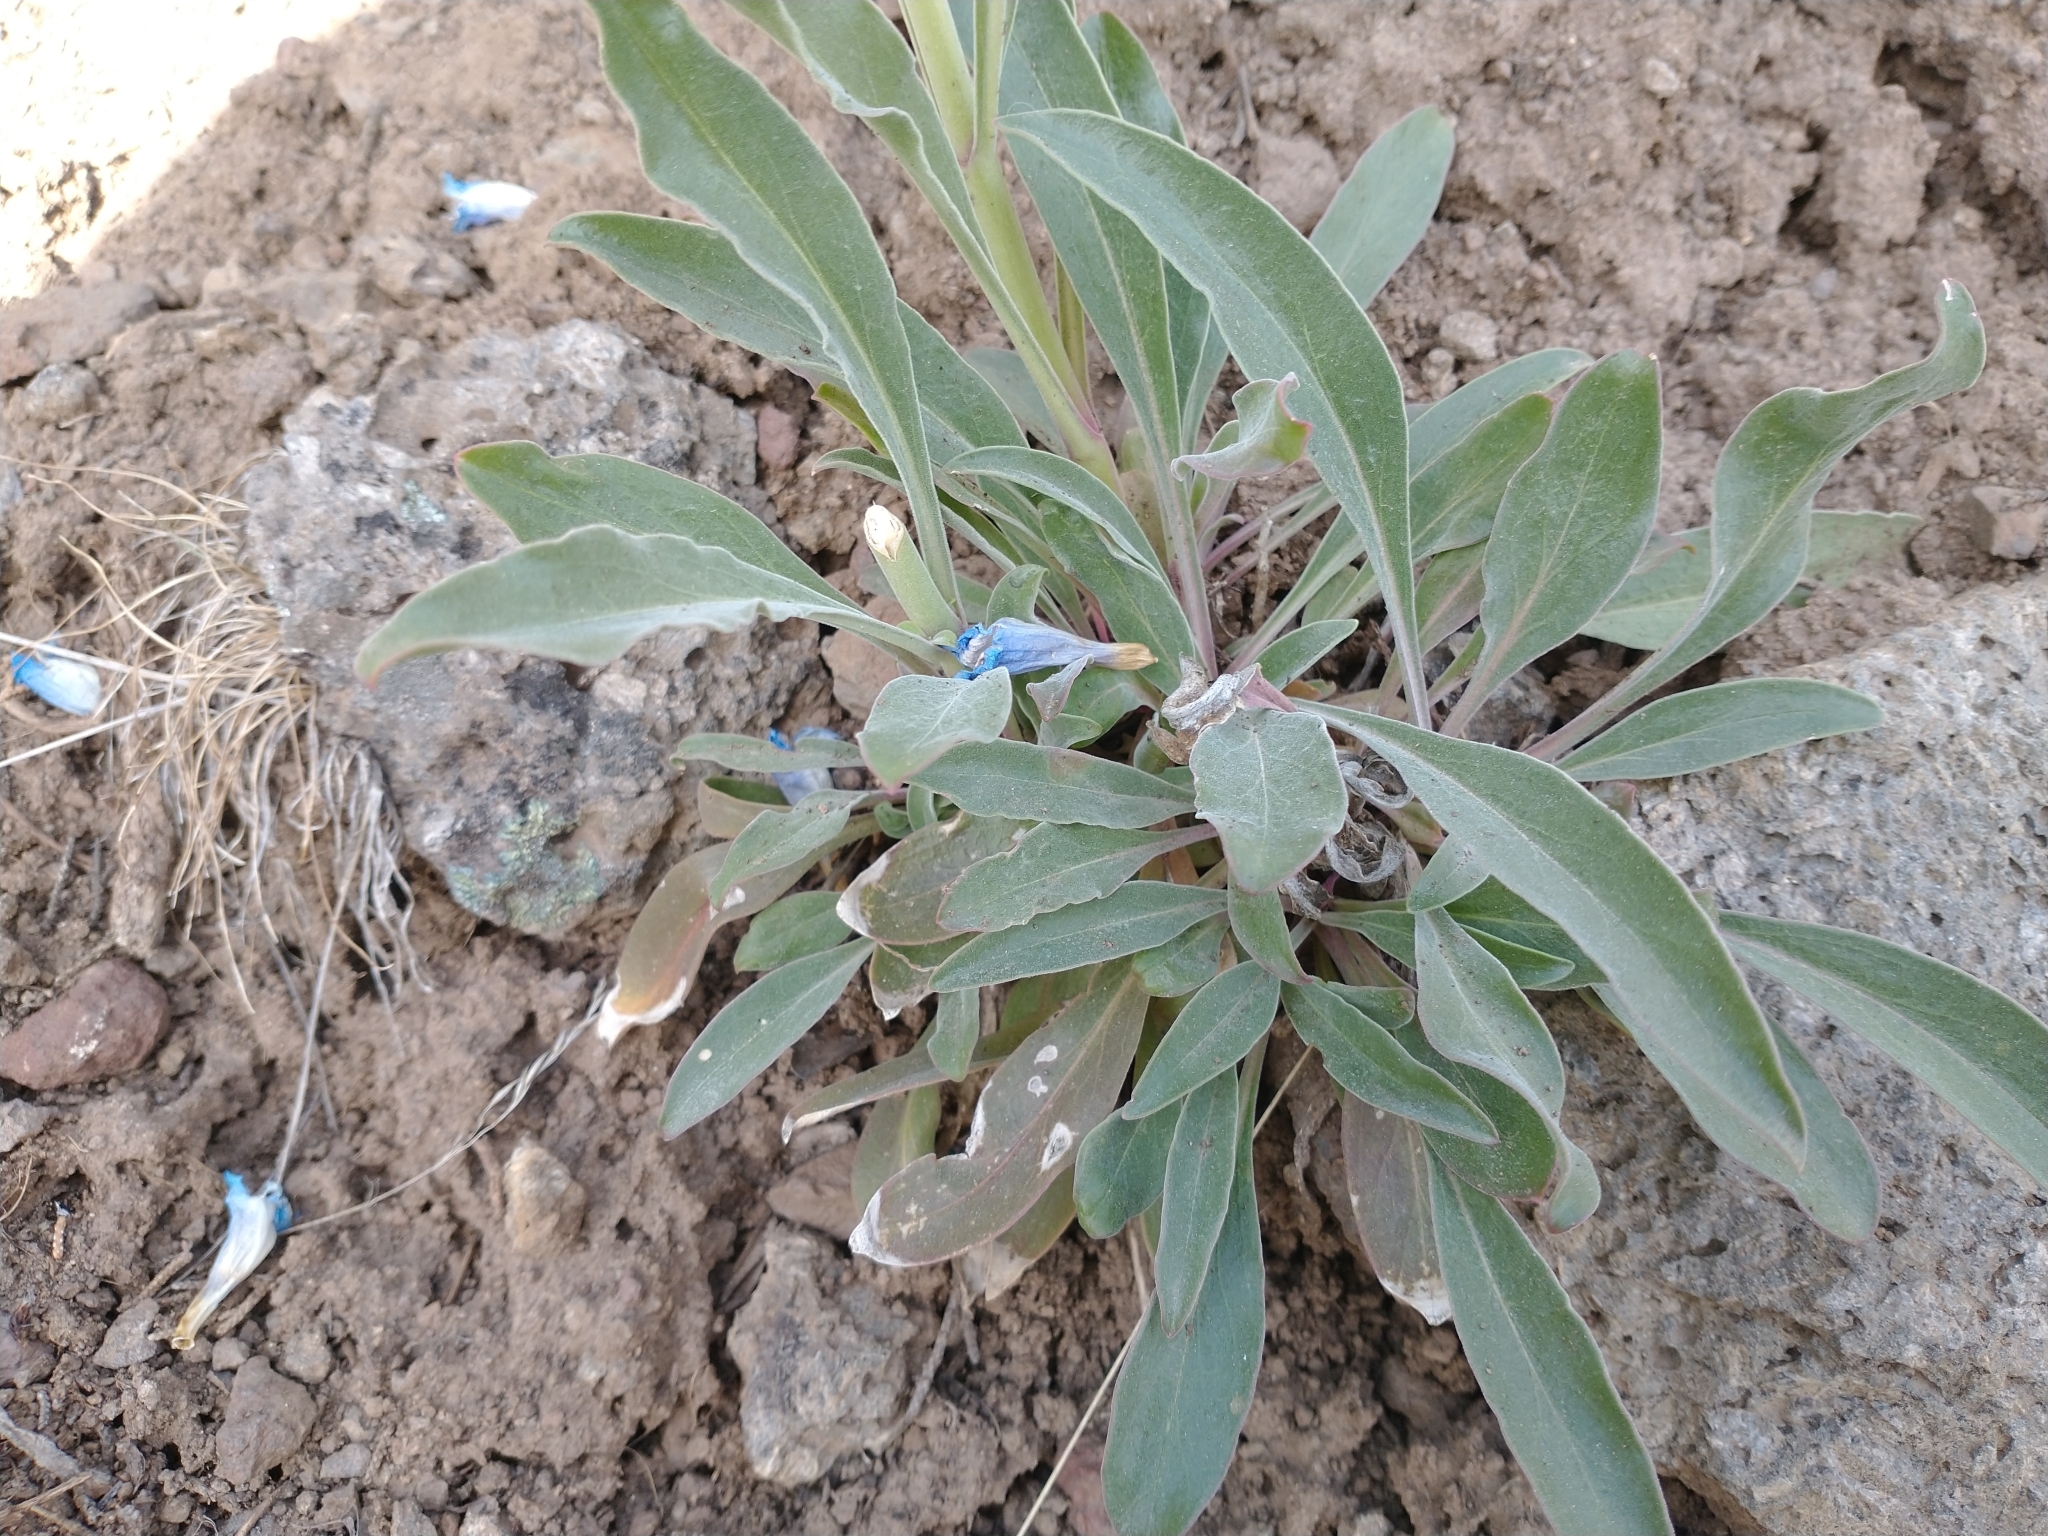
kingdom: Plantae
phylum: Tracheophyta
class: Magnoliopsida
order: Lamiales
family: Plantaginaceae
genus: Penstemon
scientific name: Penstemon speciosus
